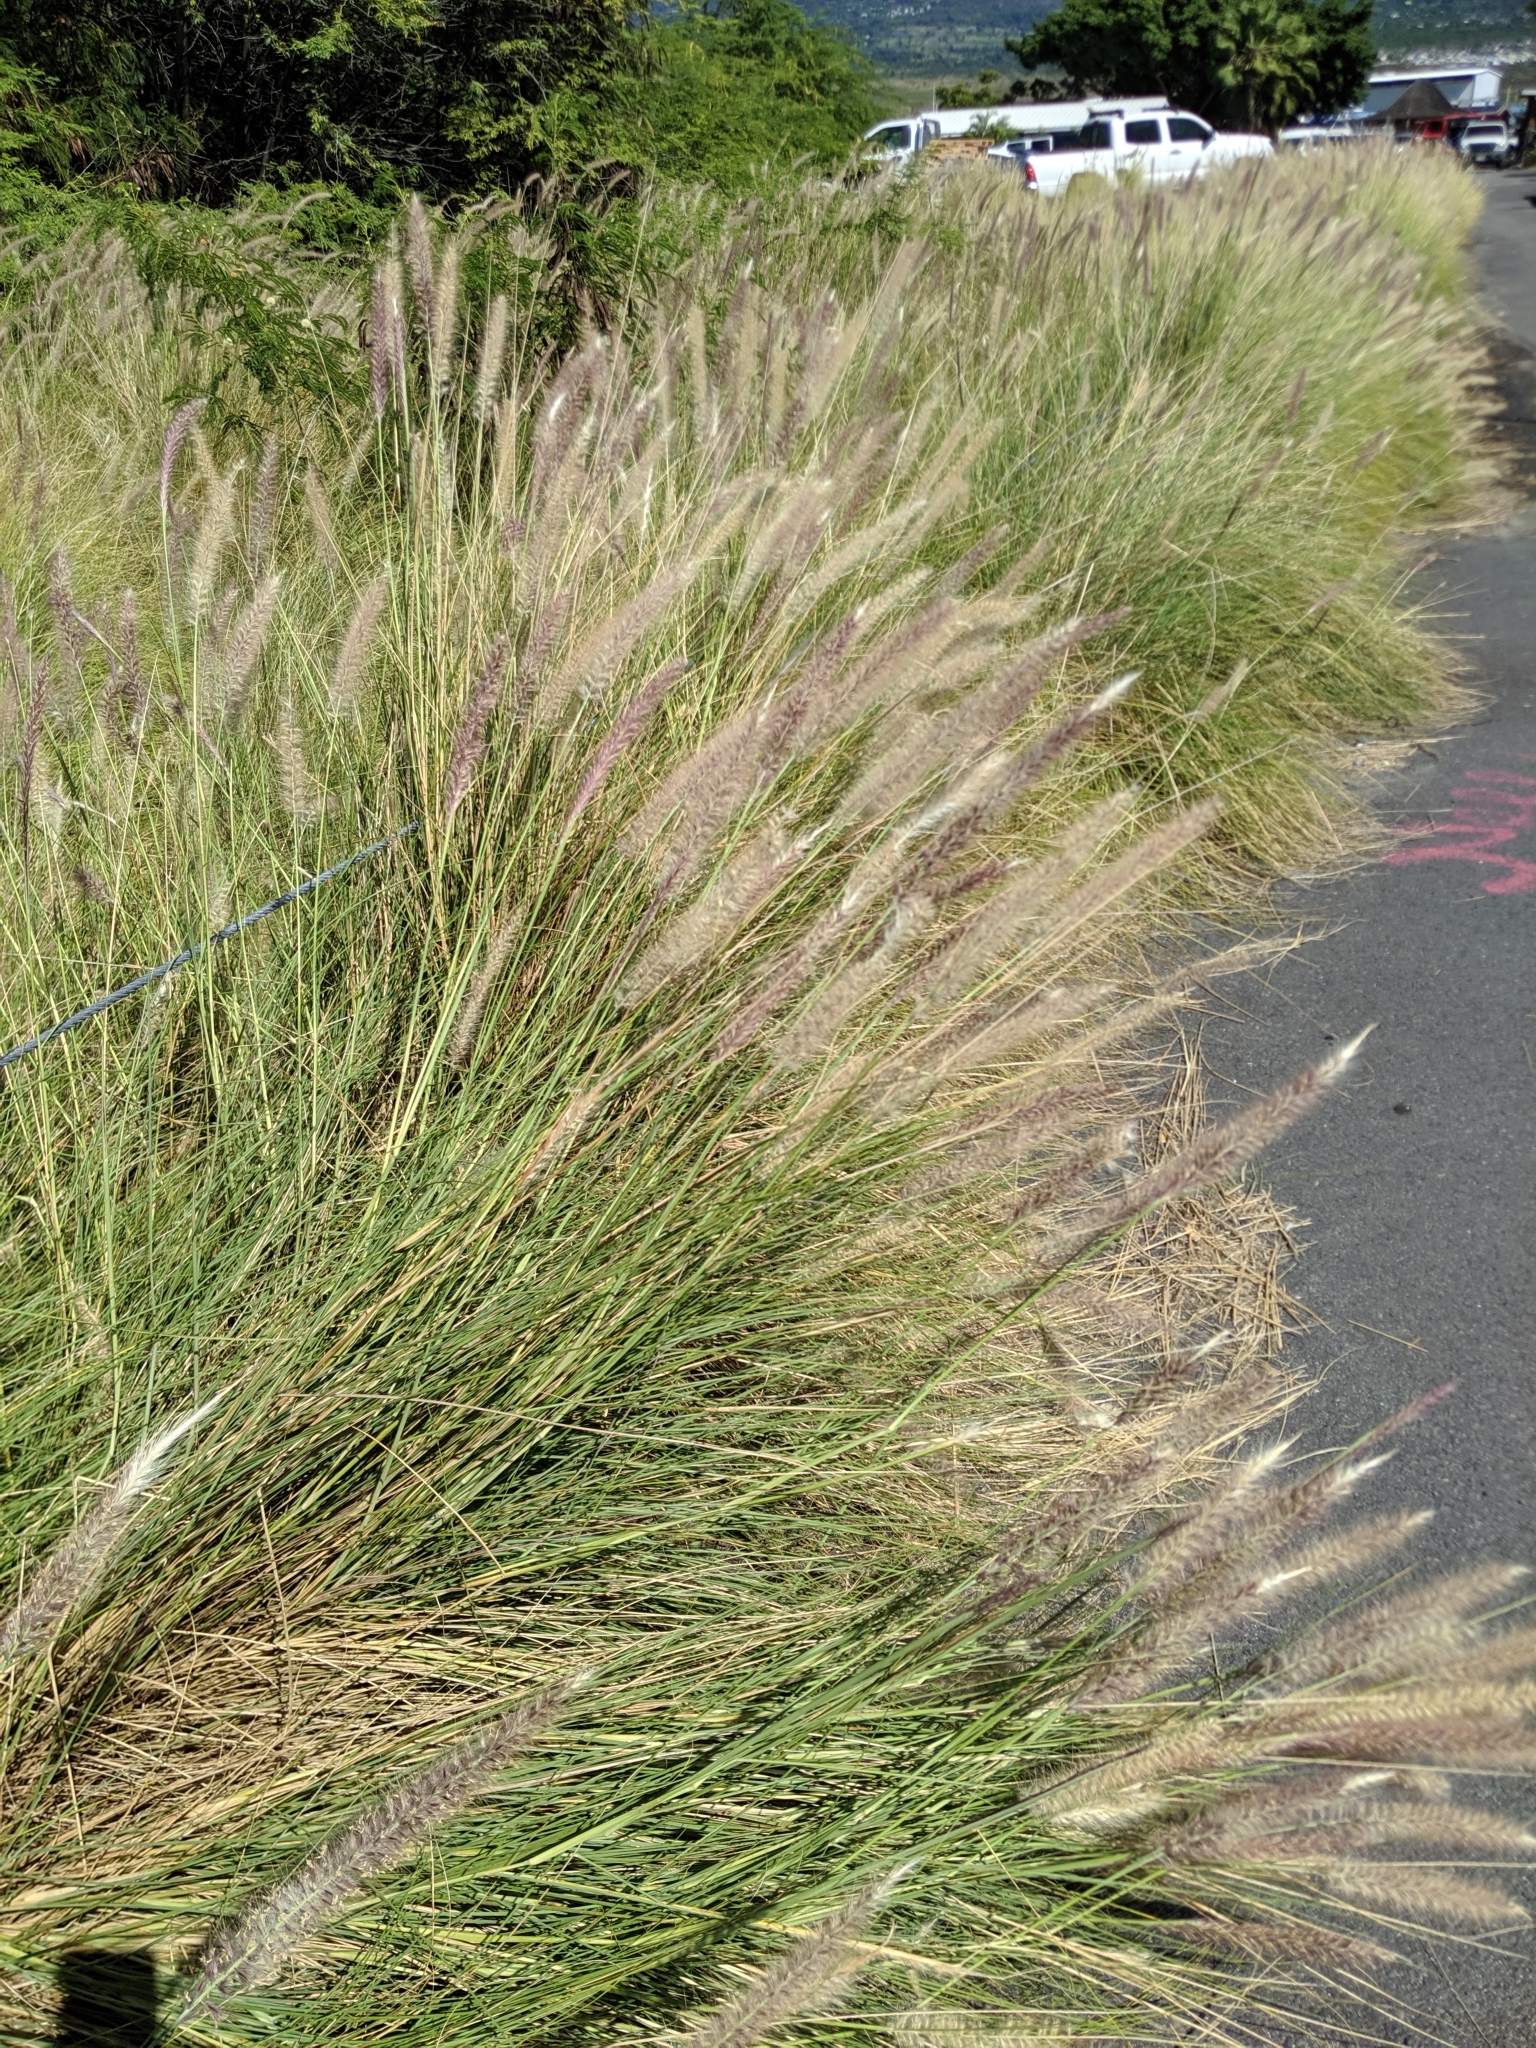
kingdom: Plantae
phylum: Tracheophyta
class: Liliopsida
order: Poales
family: Poaceae
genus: Cenchrus
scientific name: Cenchrus setaceus
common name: Crimson fountaingrass
